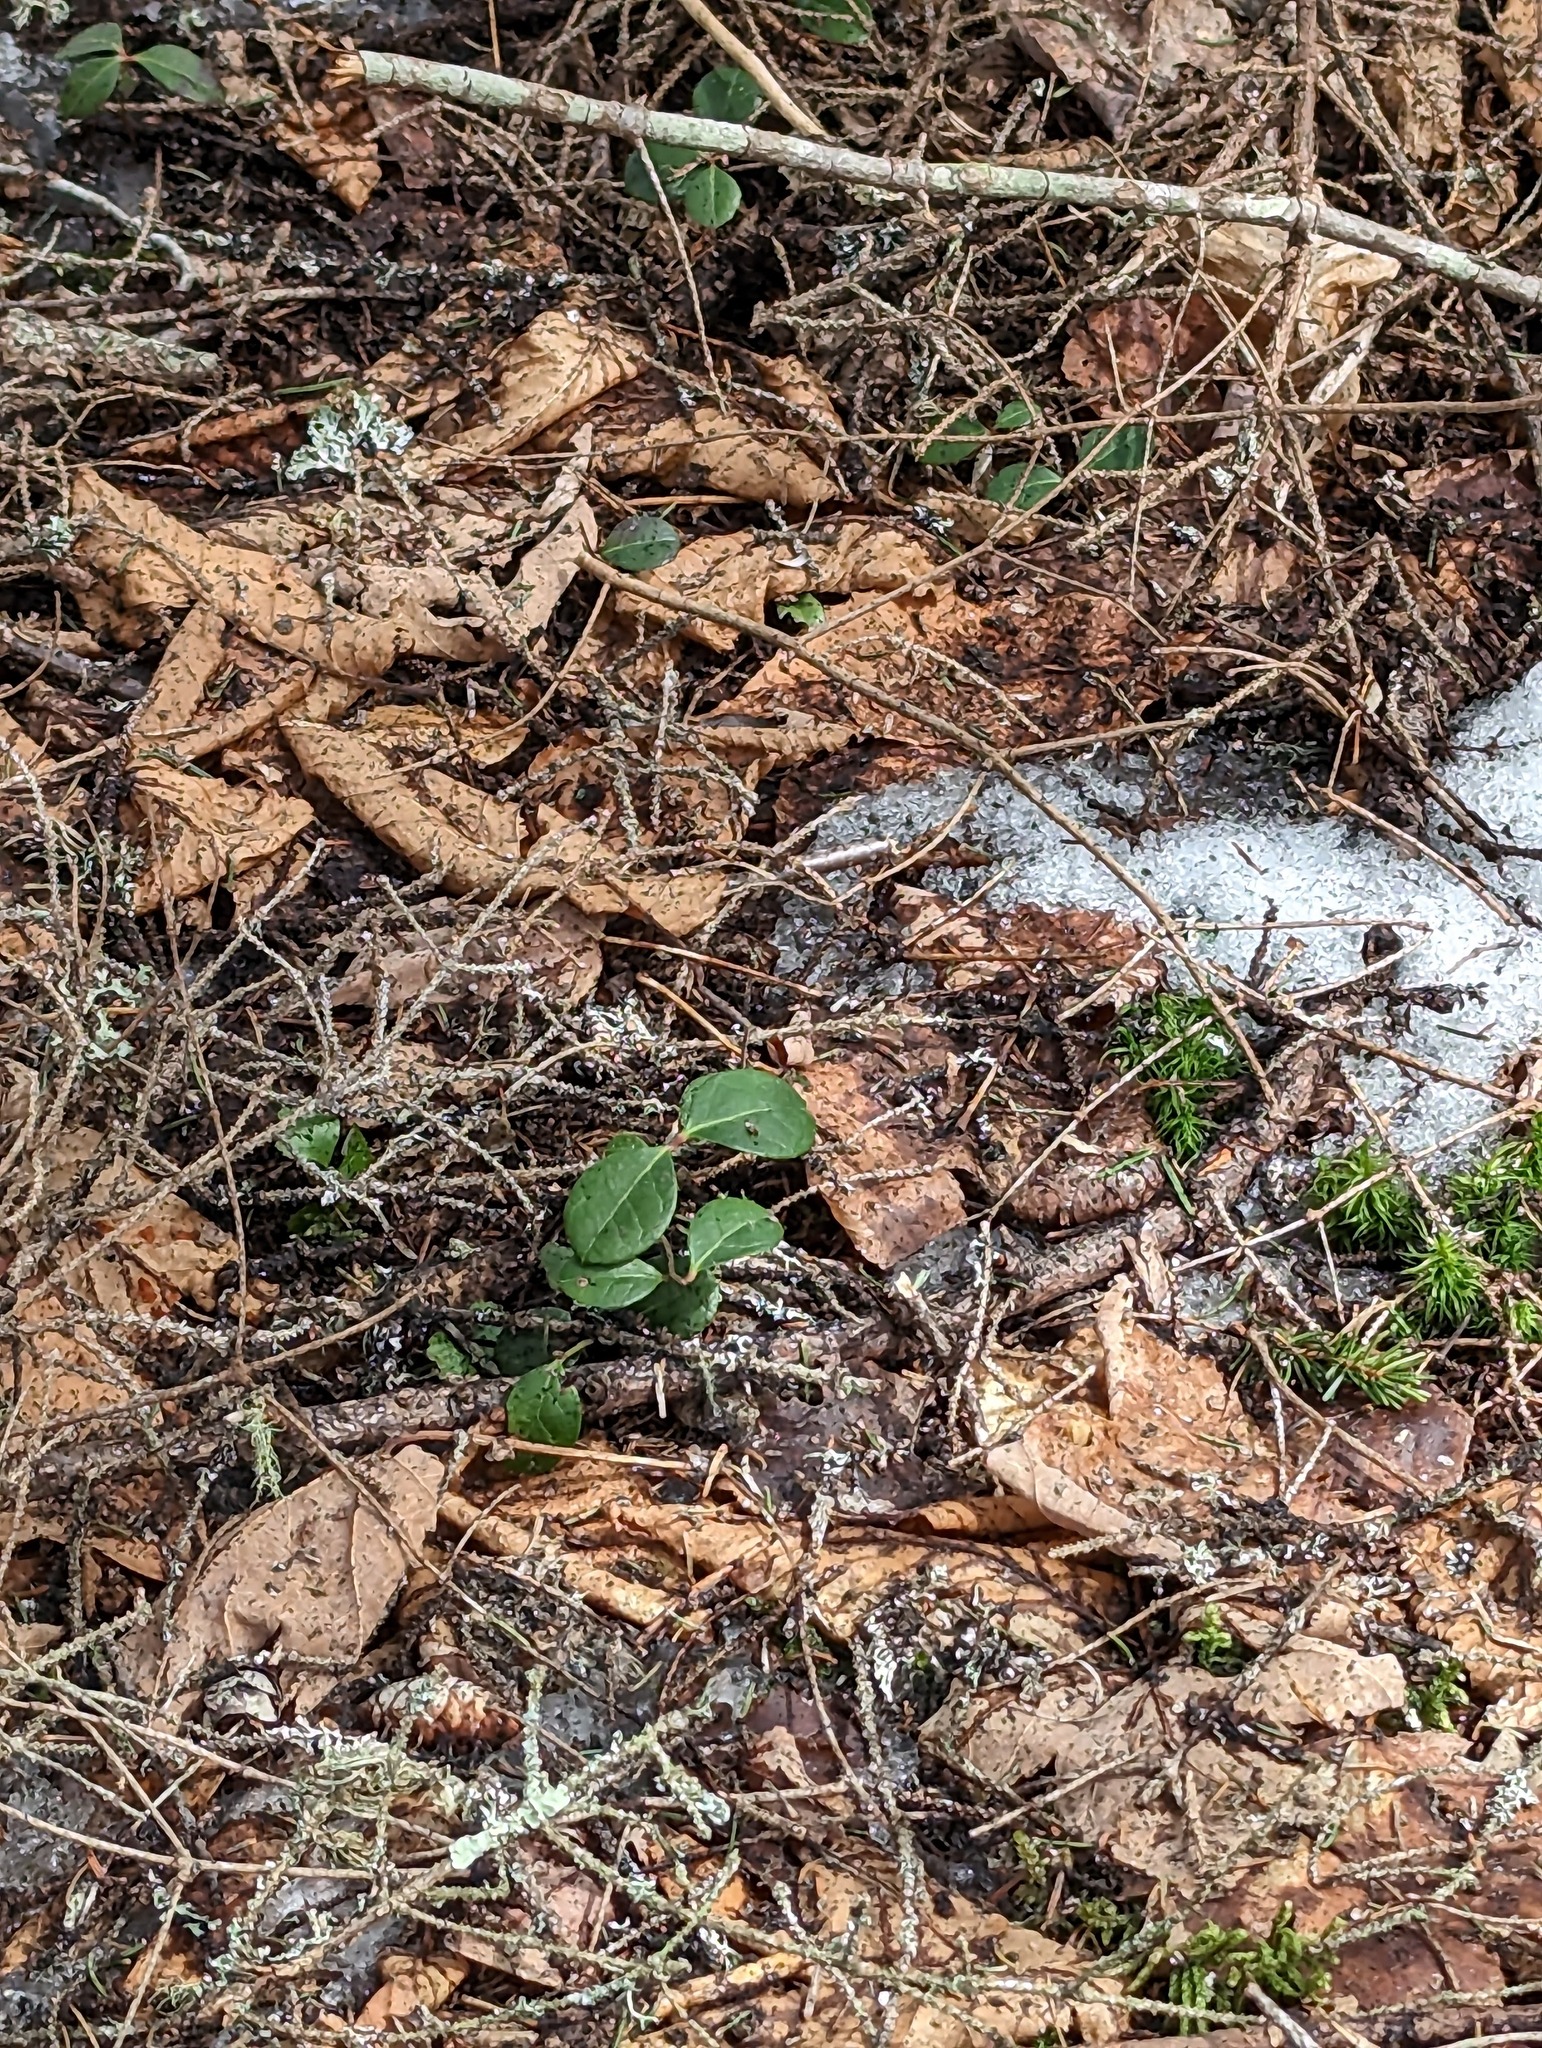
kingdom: Plantae
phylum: Tracheophyta
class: Magnoliopsida
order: Ericales
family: Ericaceae
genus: Gaultheria
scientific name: Gaultheria procumbens
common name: Checkerberry
